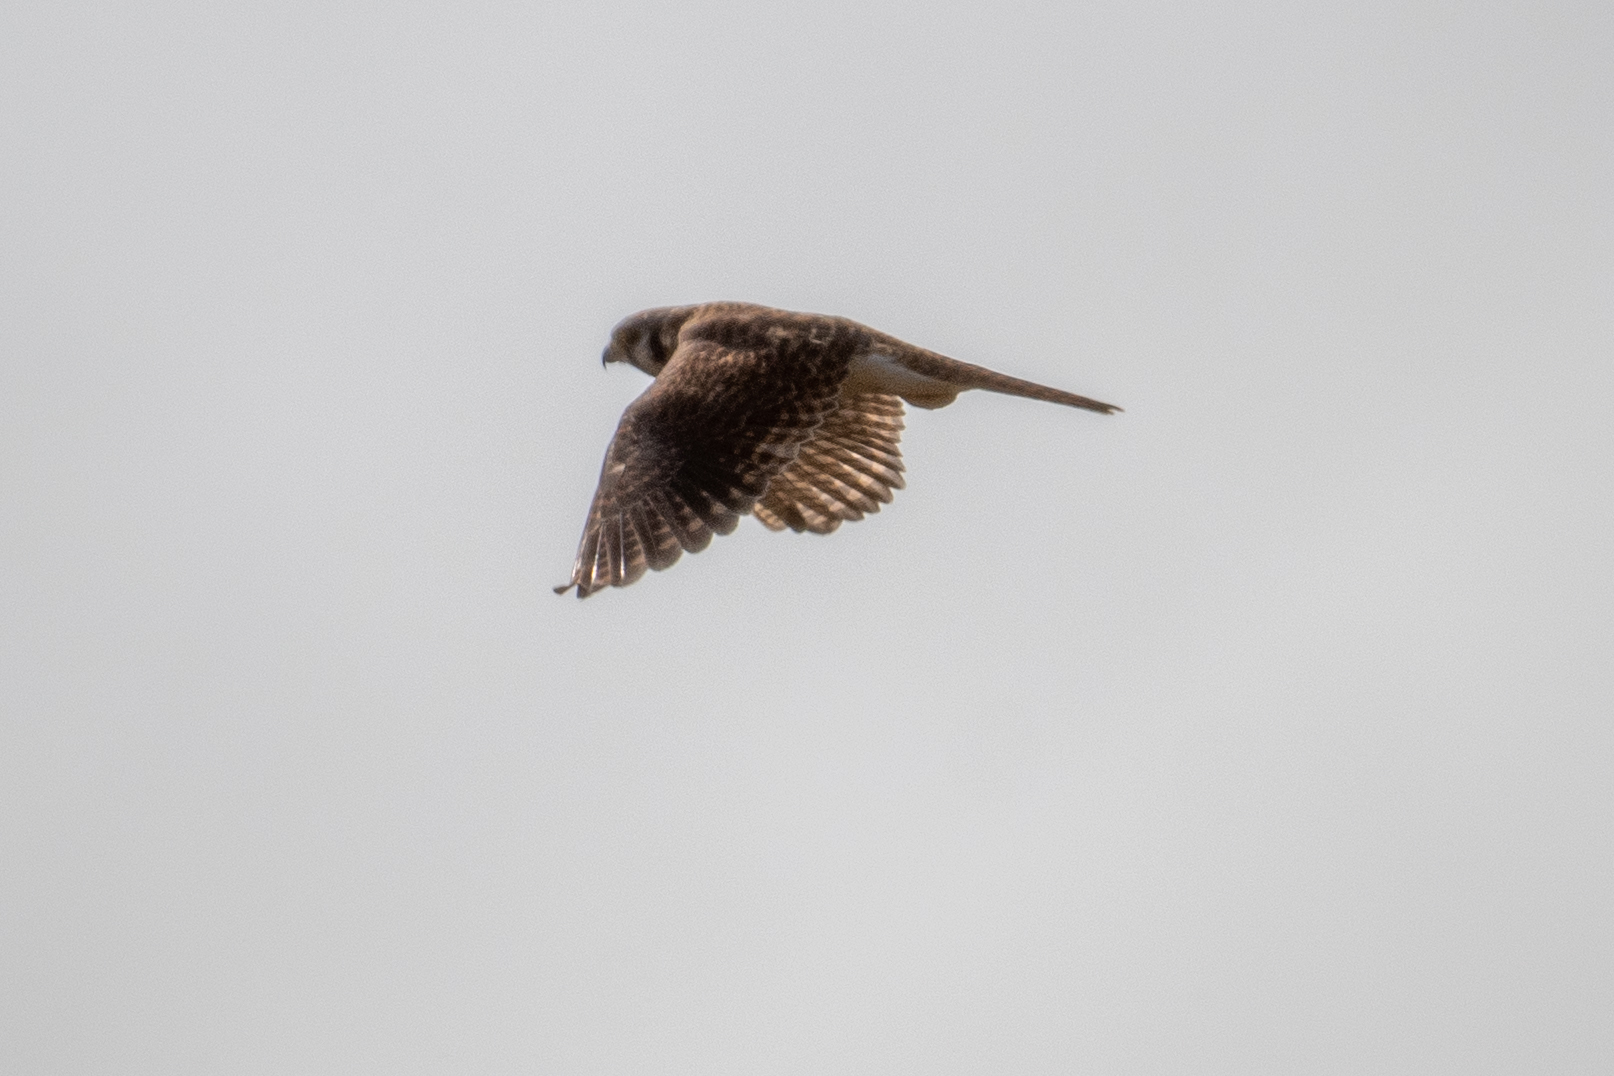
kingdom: Animalia
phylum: Chordata
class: Aves
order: Falconiformes
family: Falconidae
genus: Falco
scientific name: Falco sparverius
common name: American kestrel
